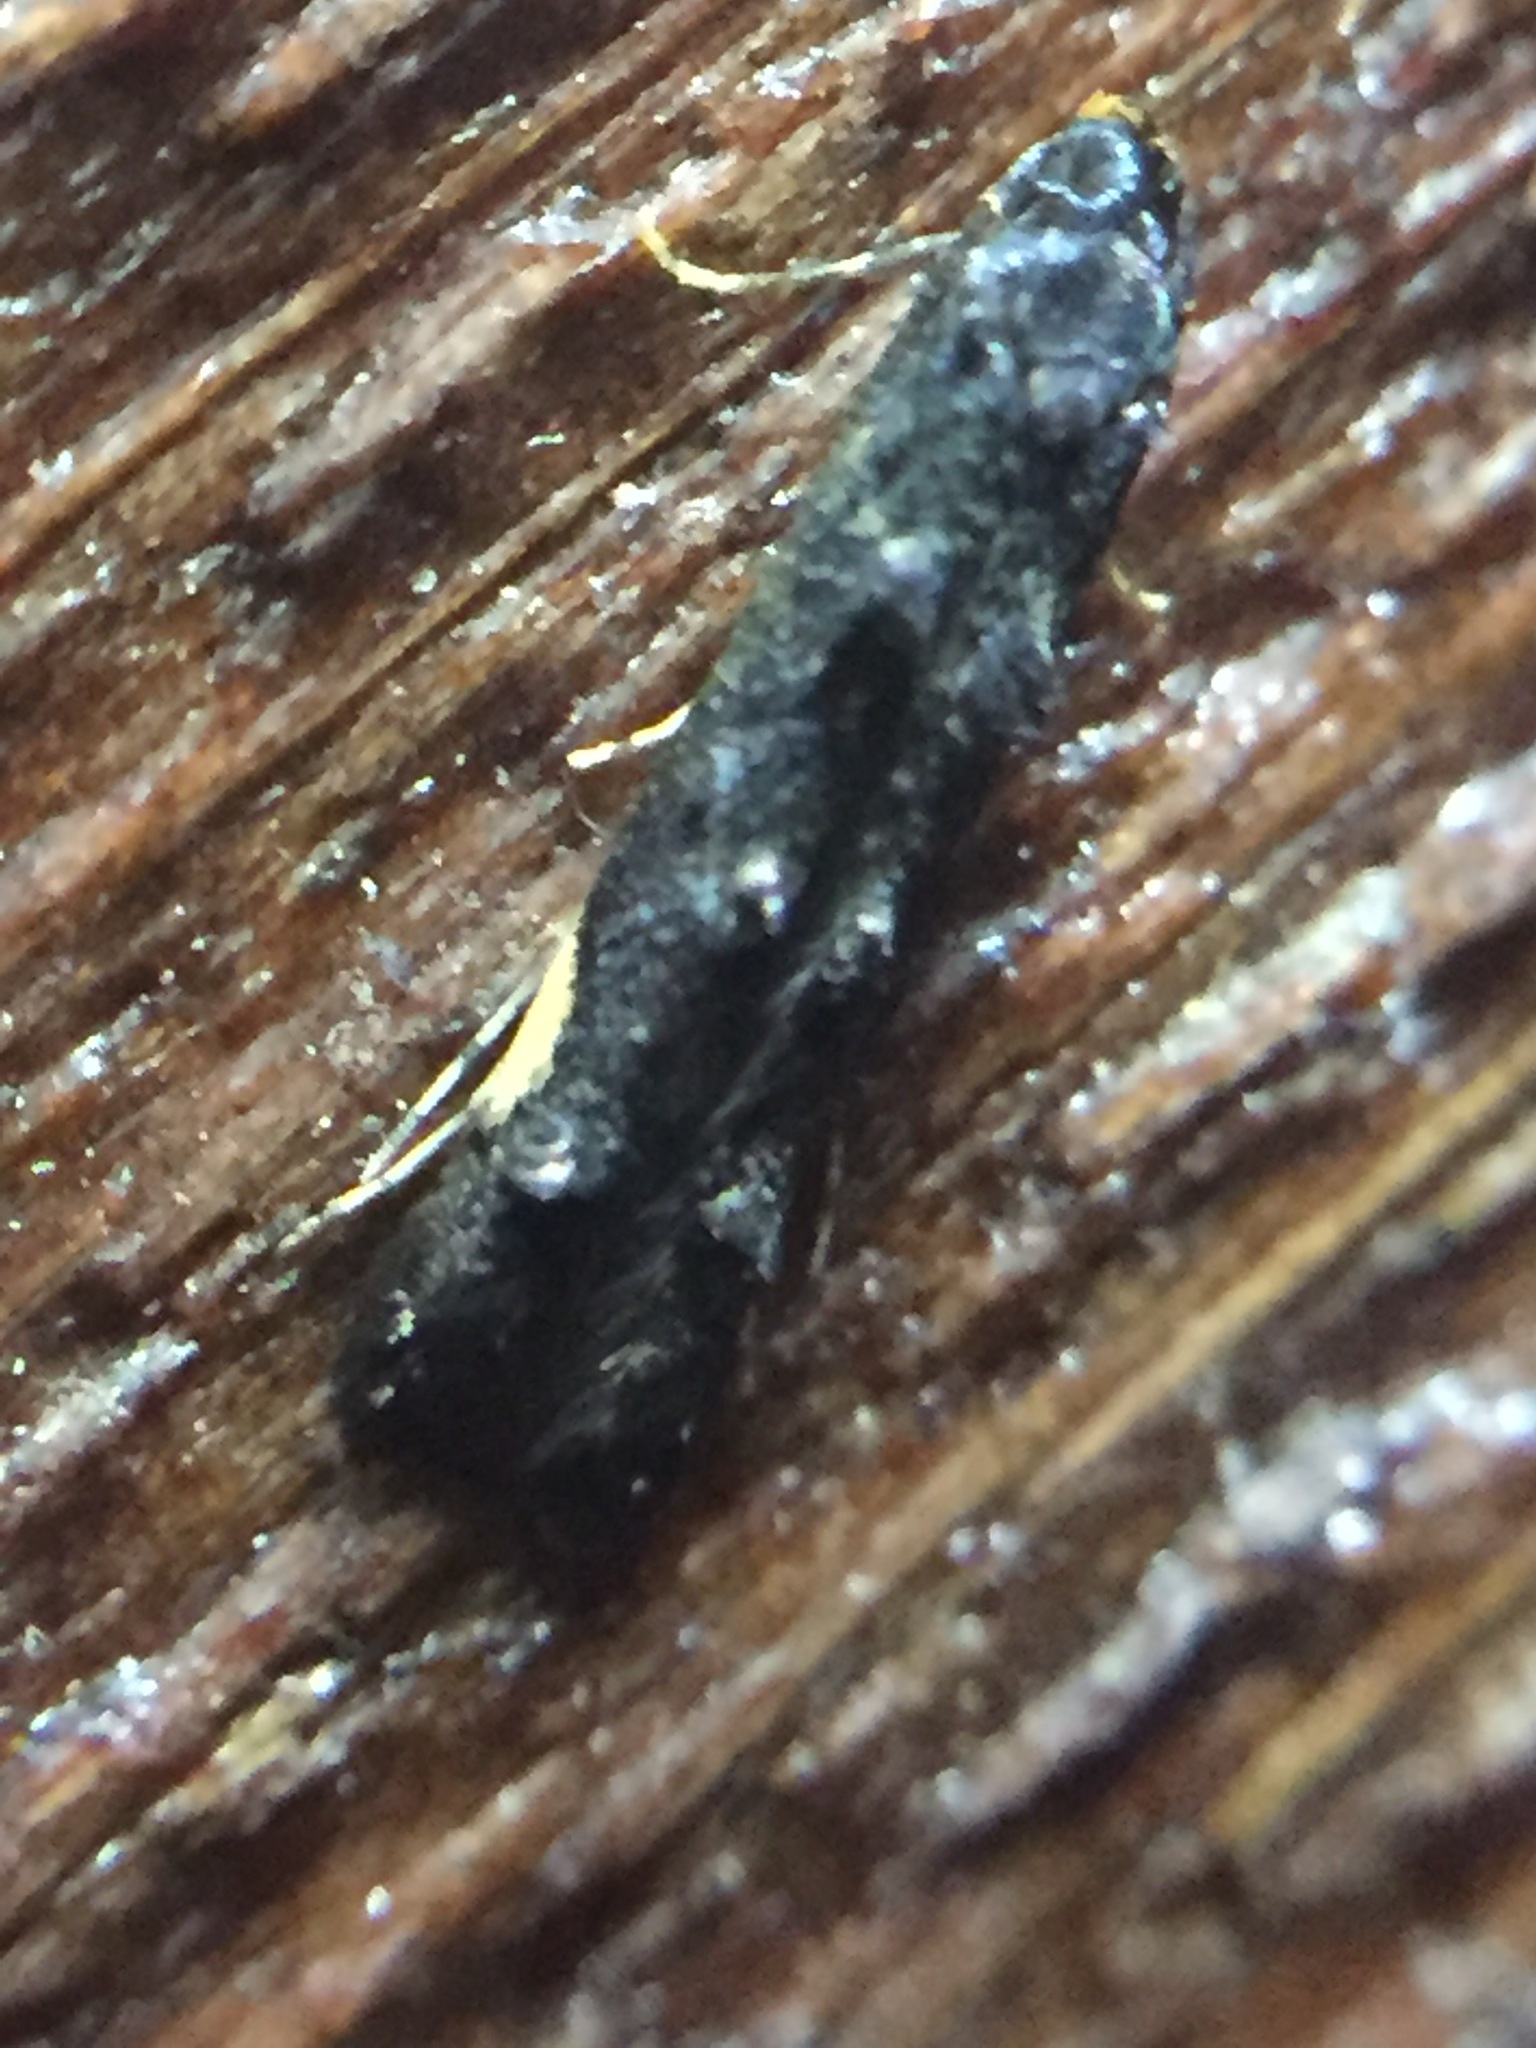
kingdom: Animalia
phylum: Arthropoda
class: Insecta
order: Lepidoptera
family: Elachistidae
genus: Microcolona
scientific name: Microcolona
